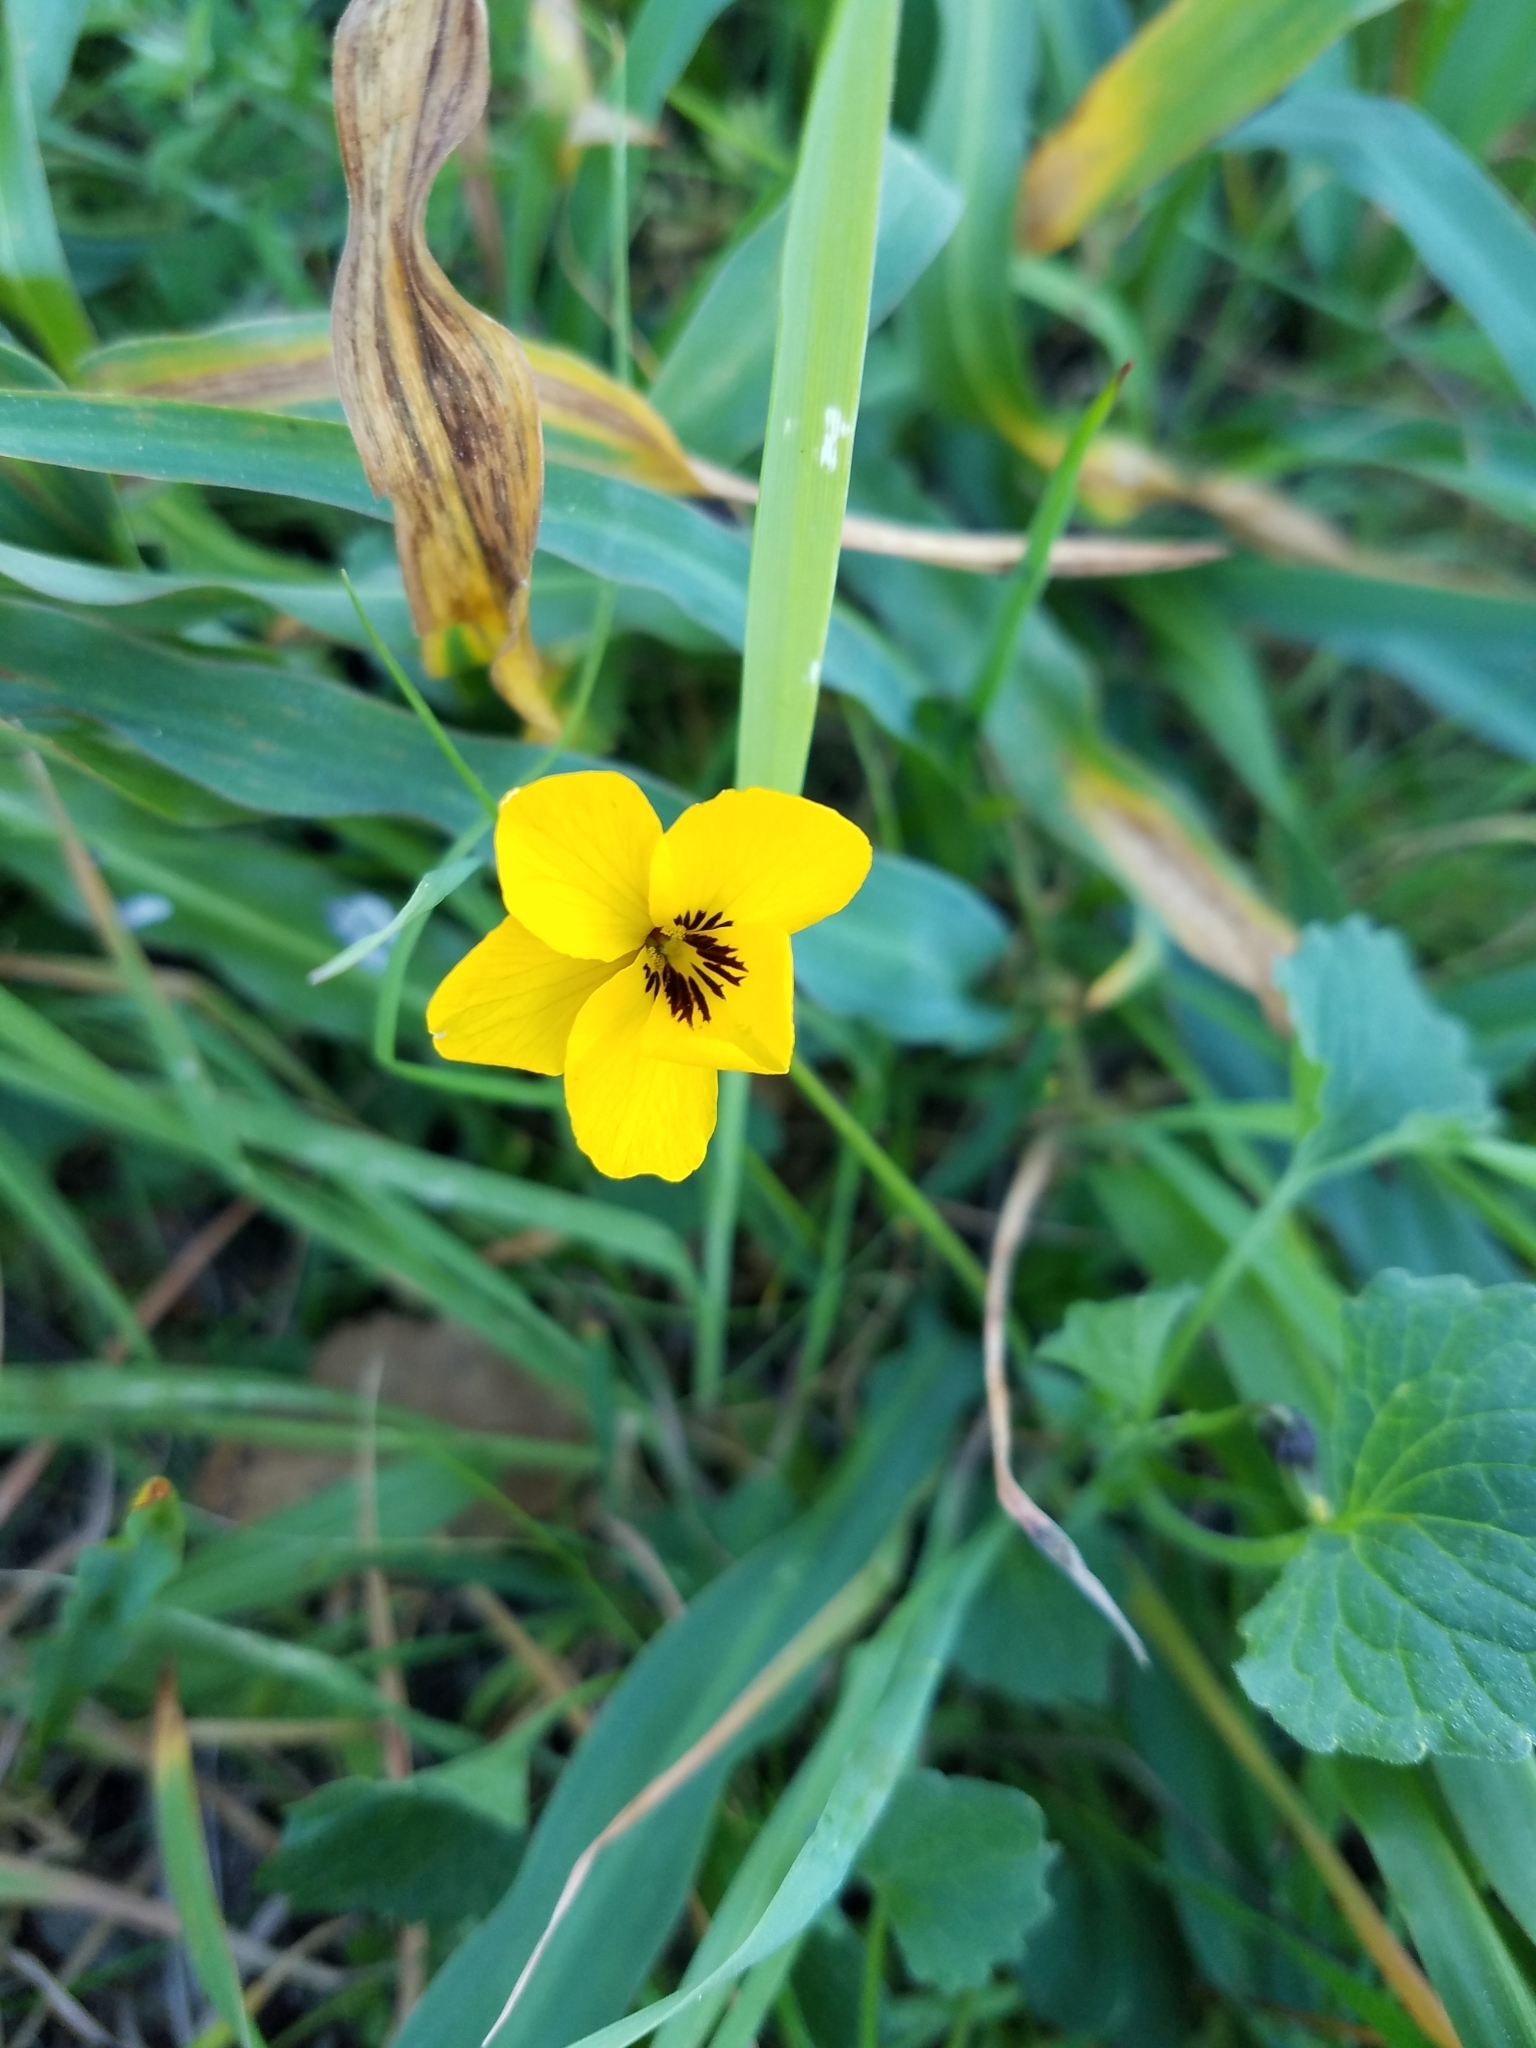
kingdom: Plantae
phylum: Tracheophyta
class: Magnoliopsida
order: Malpighiales
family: Violaceae
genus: Viola
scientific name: Viola pedunculata
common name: California golden violet
